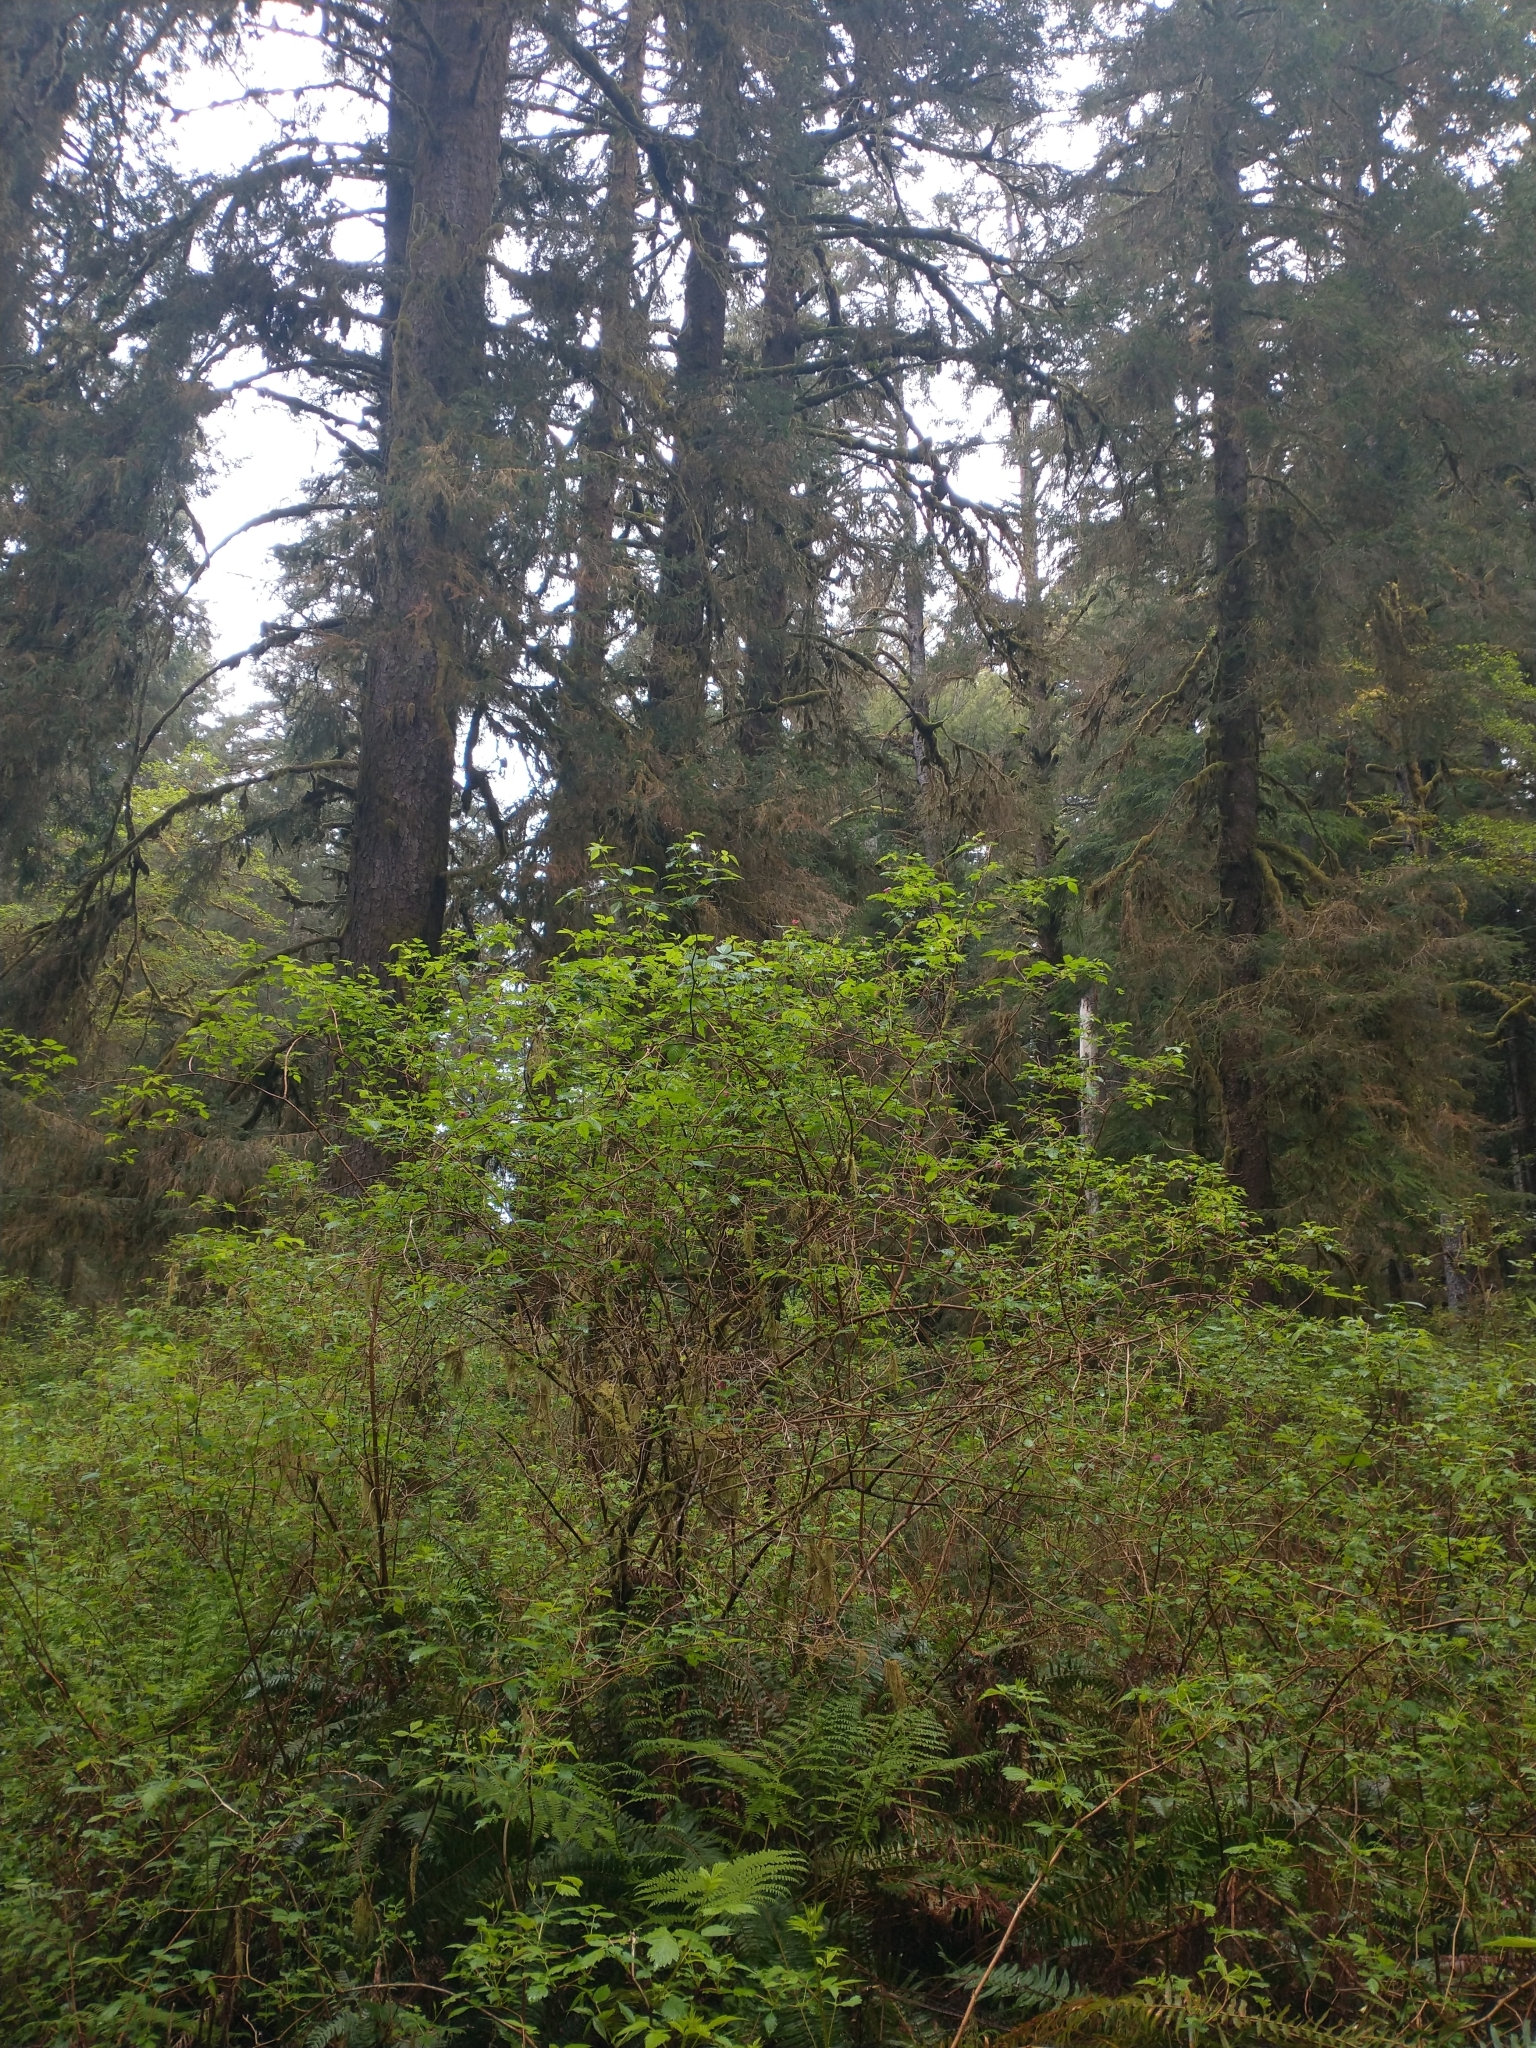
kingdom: Plantae
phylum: Tracheophyta
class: Magnoliopsida
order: Rosales
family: Rosaceae
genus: Rubus
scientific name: Rubus spectabilis
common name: Salmonberry
